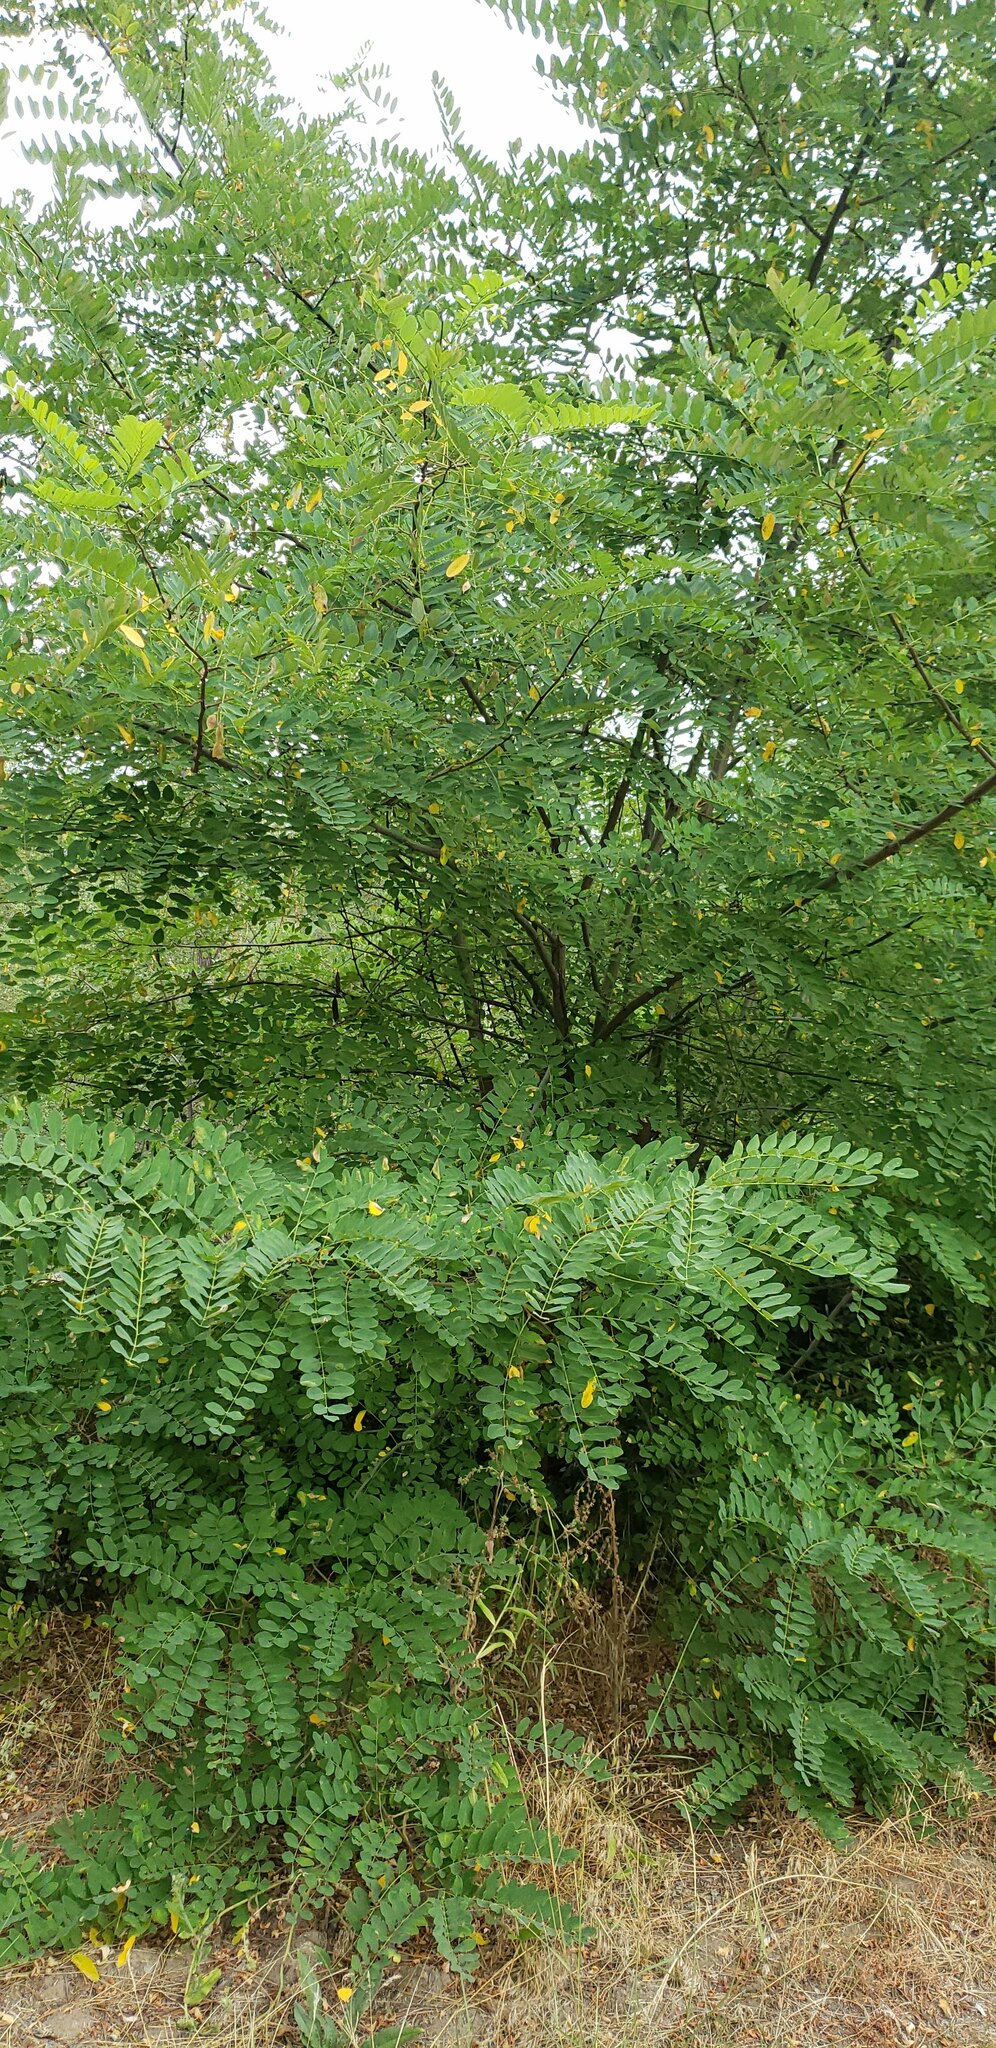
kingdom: Plantae
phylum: Tracheophyta
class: Magnoliopsida
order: Fabales
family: Fabaceae
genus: Robinia
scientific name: Robinia pseudoacacia
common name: Black locust
